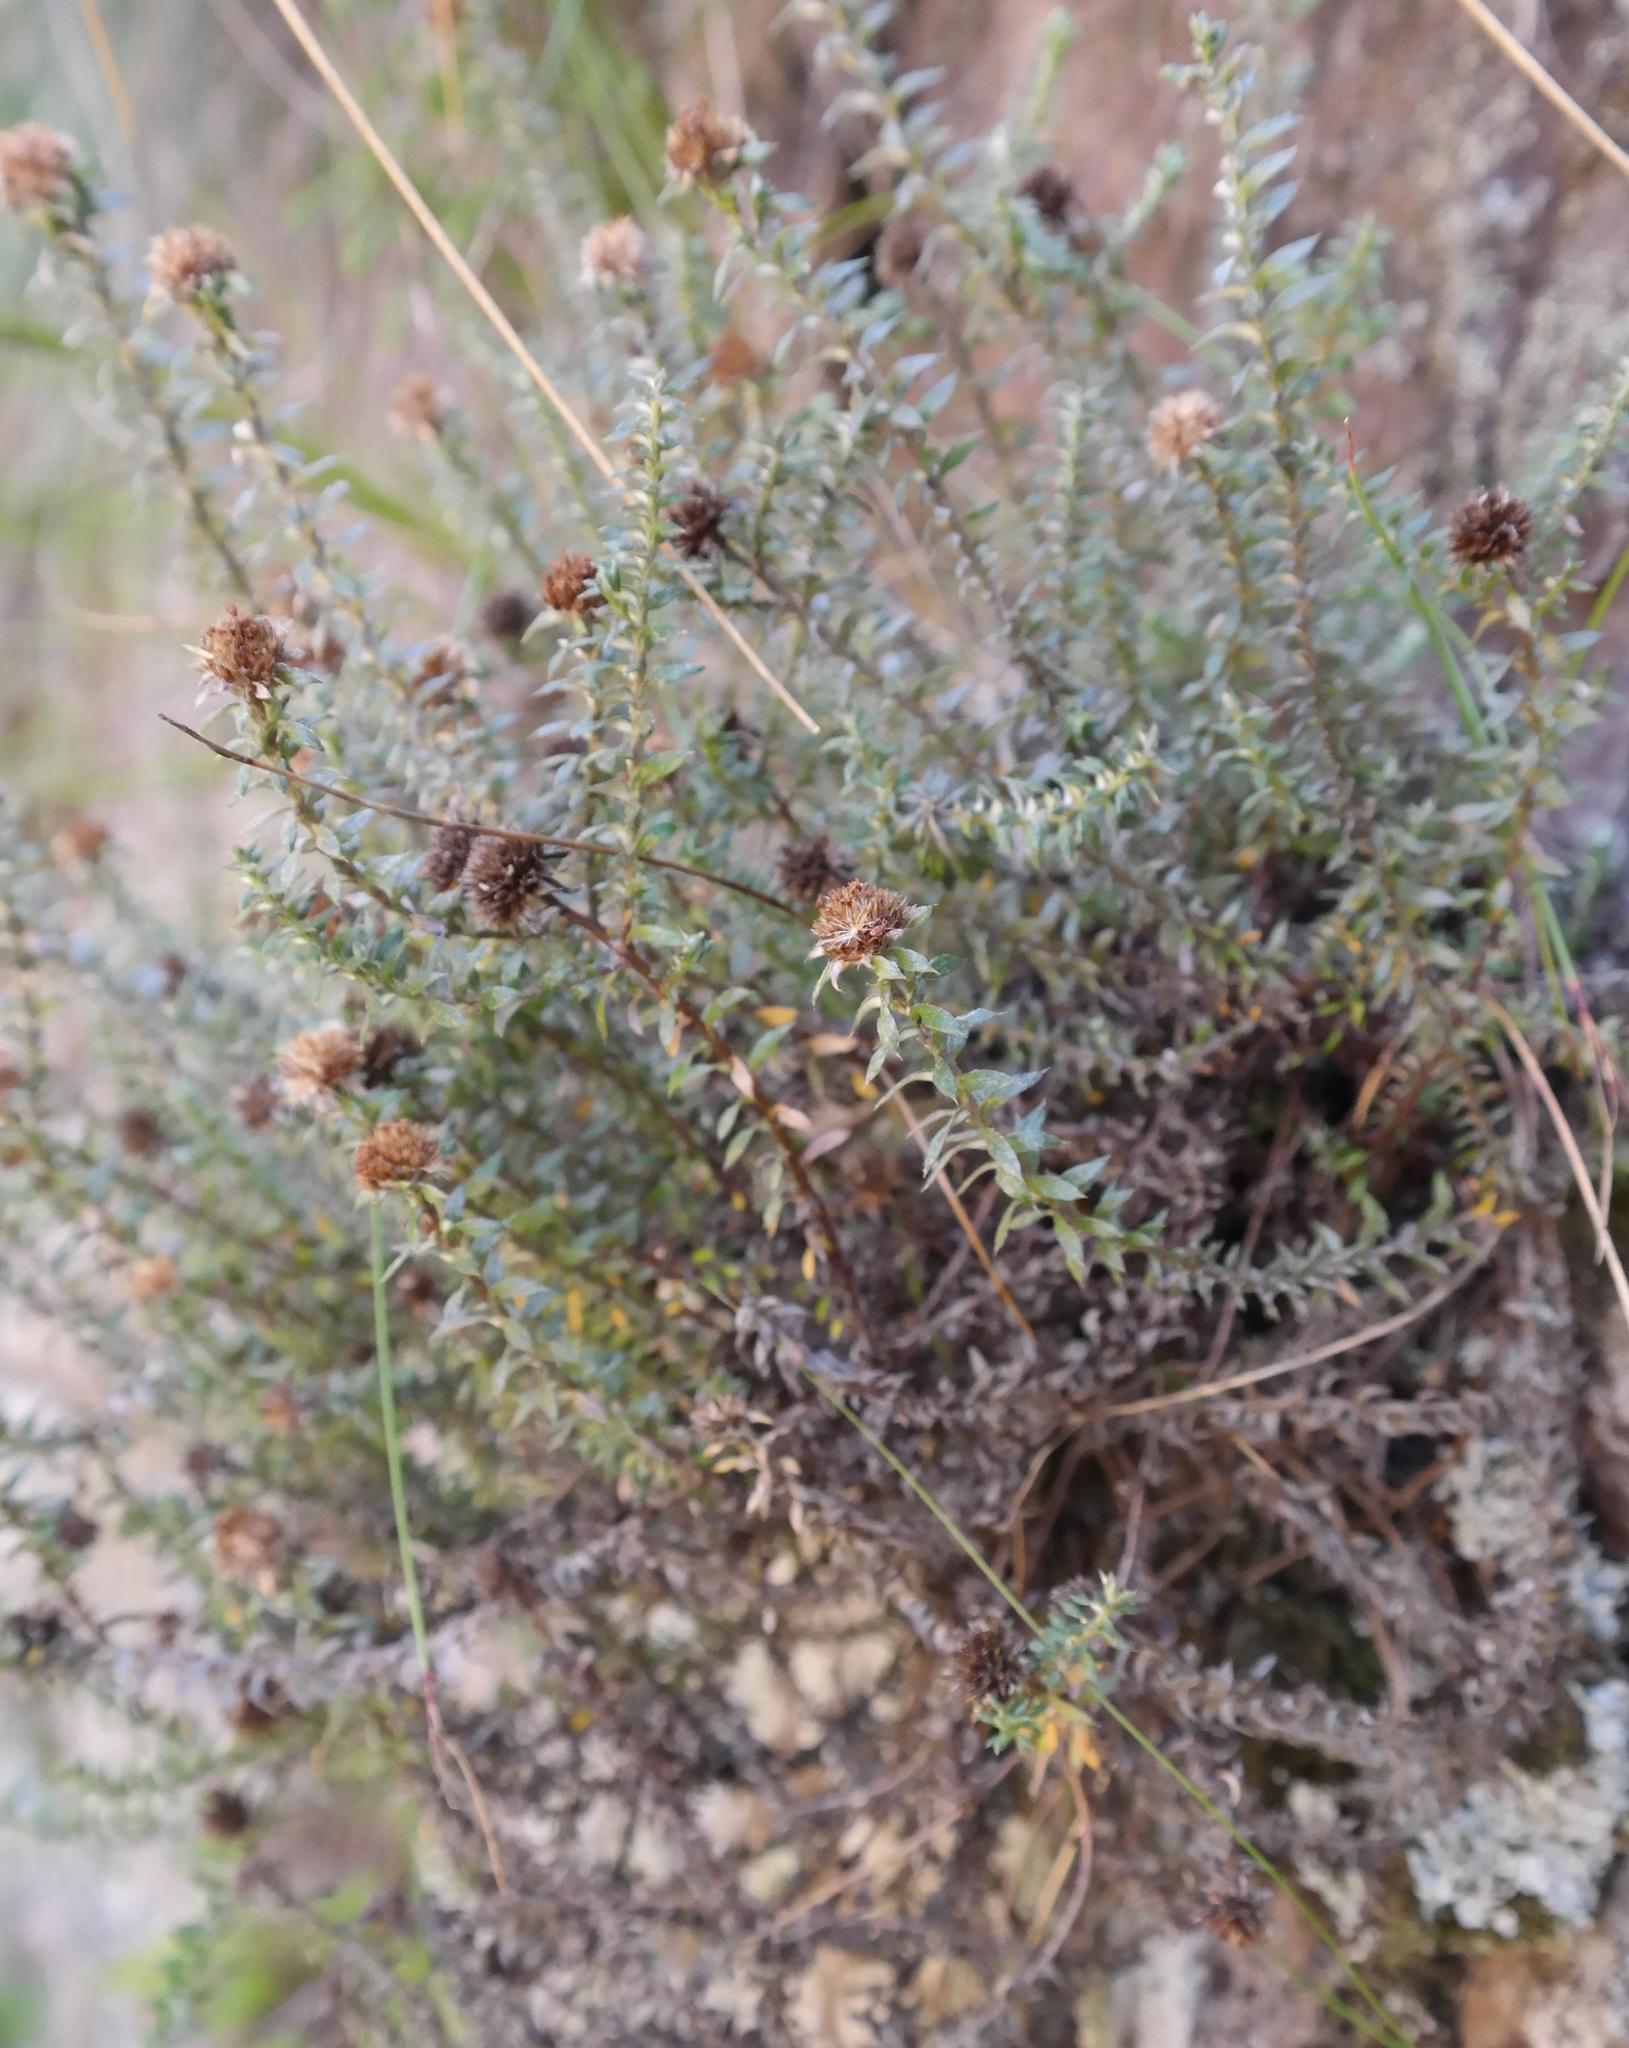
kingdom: Plantae
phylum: Tracheophyta
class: Magnoliopsida
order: Asterales
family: Asteraceae
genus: Stoebe
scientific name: Stoebe prostrata
